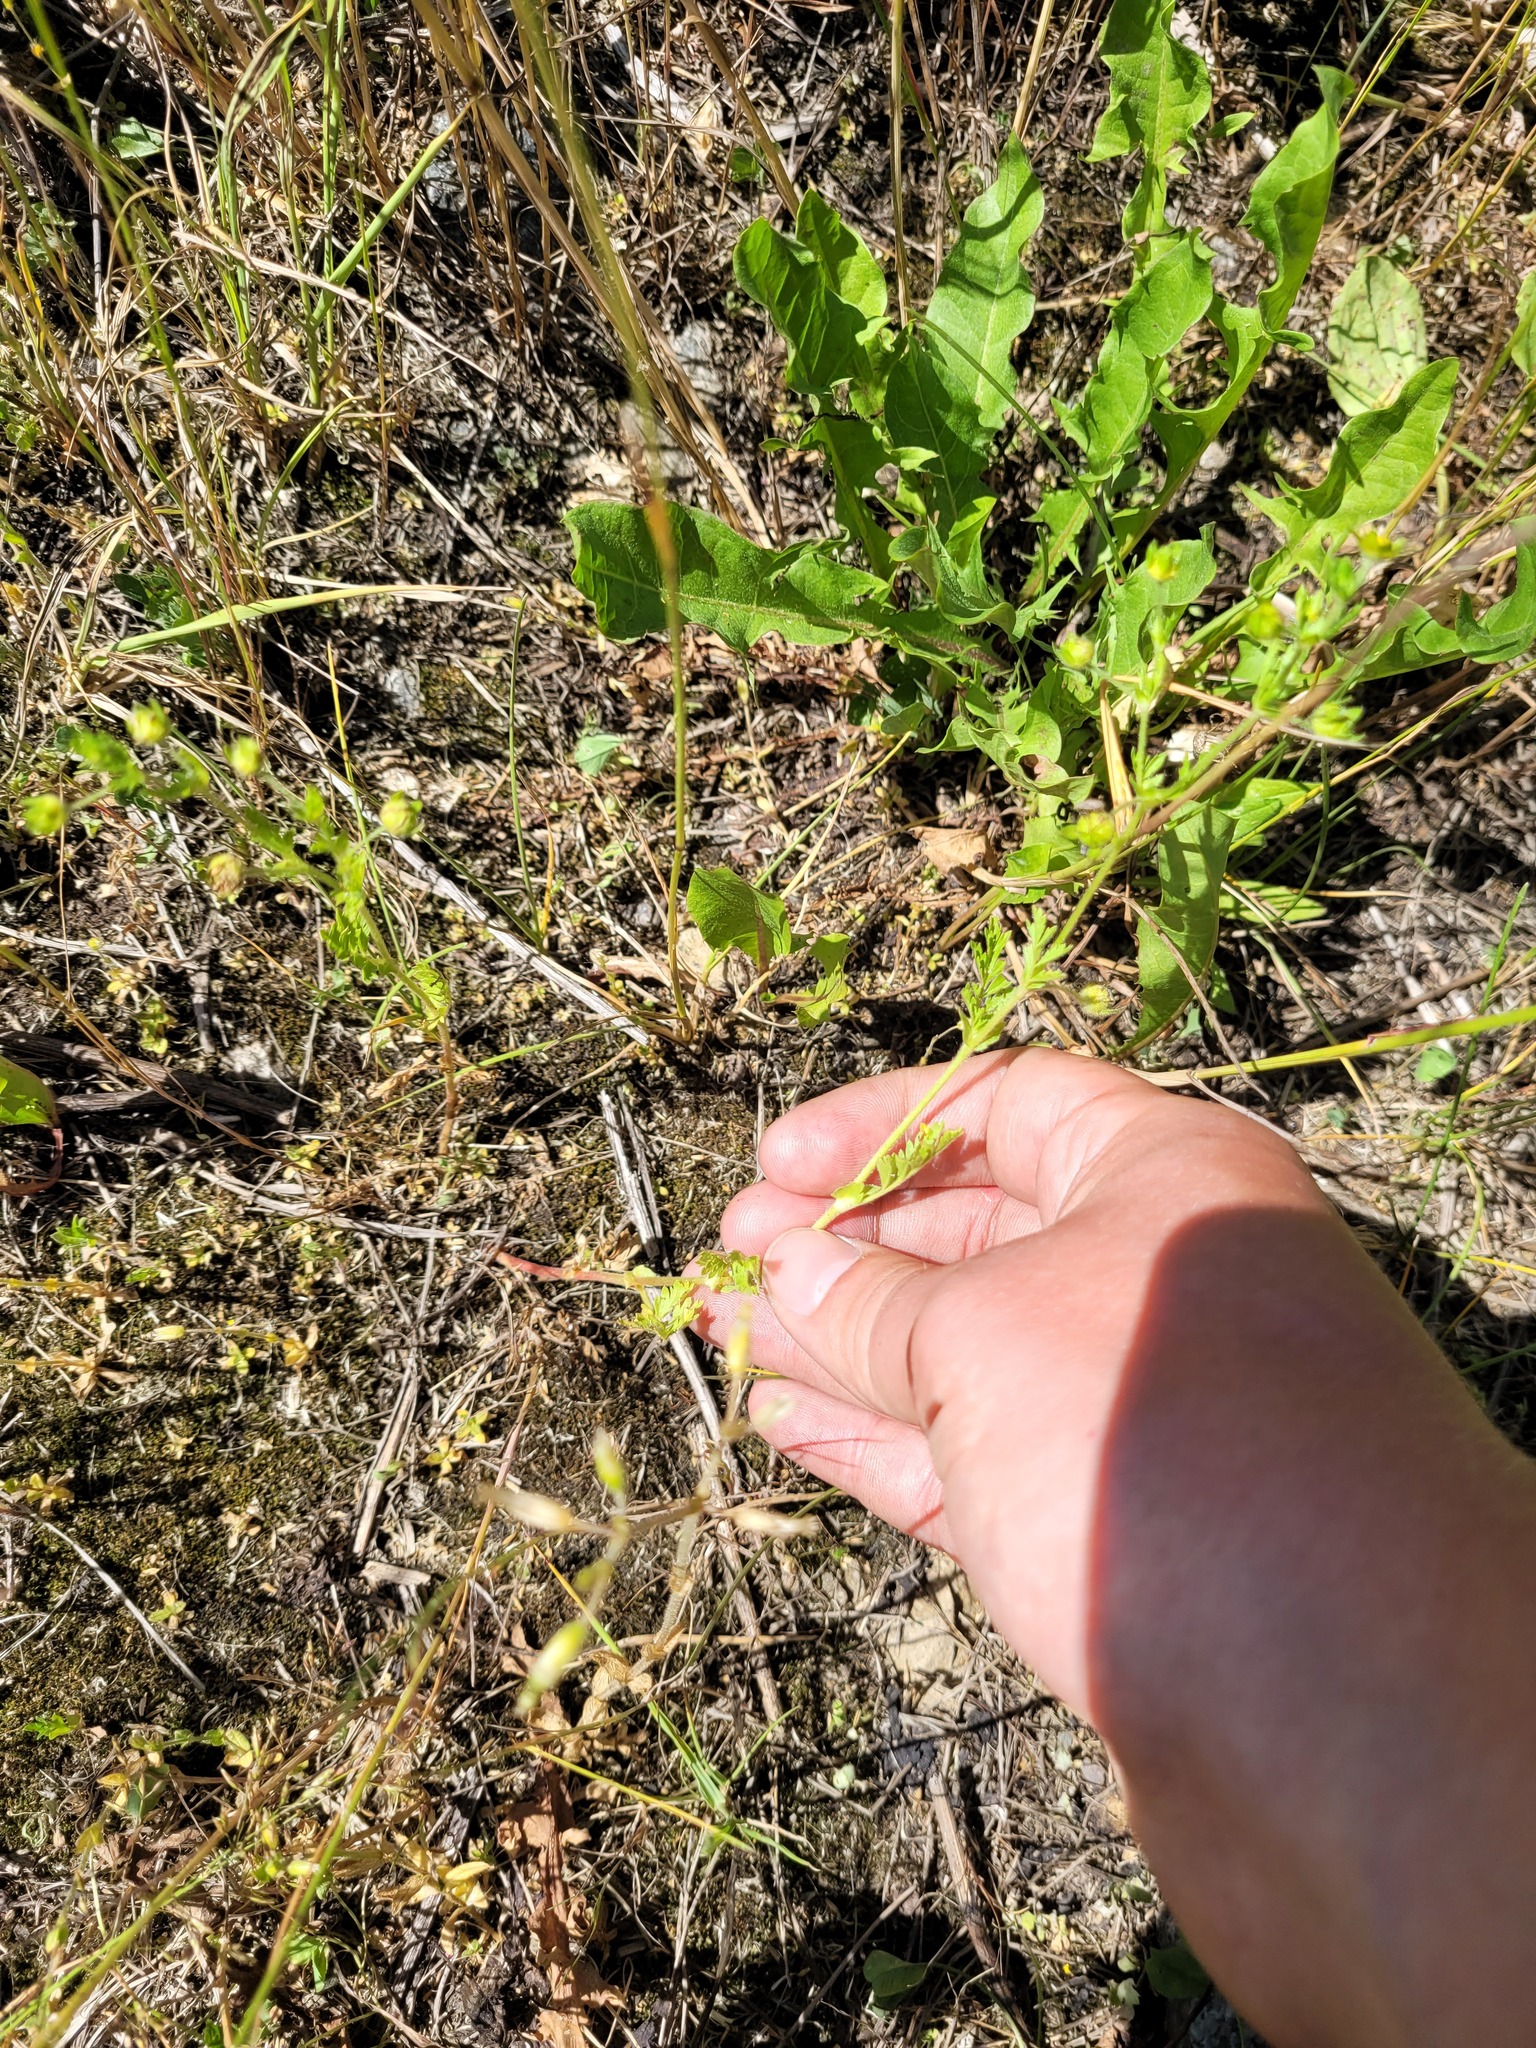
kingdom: Plantae
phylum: Tracheophyta
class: Magnoliopsida
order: Rosales
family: Rosaceae
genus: Potentilla
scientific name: Potentilla supina
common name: Prostrate cinquefoil
